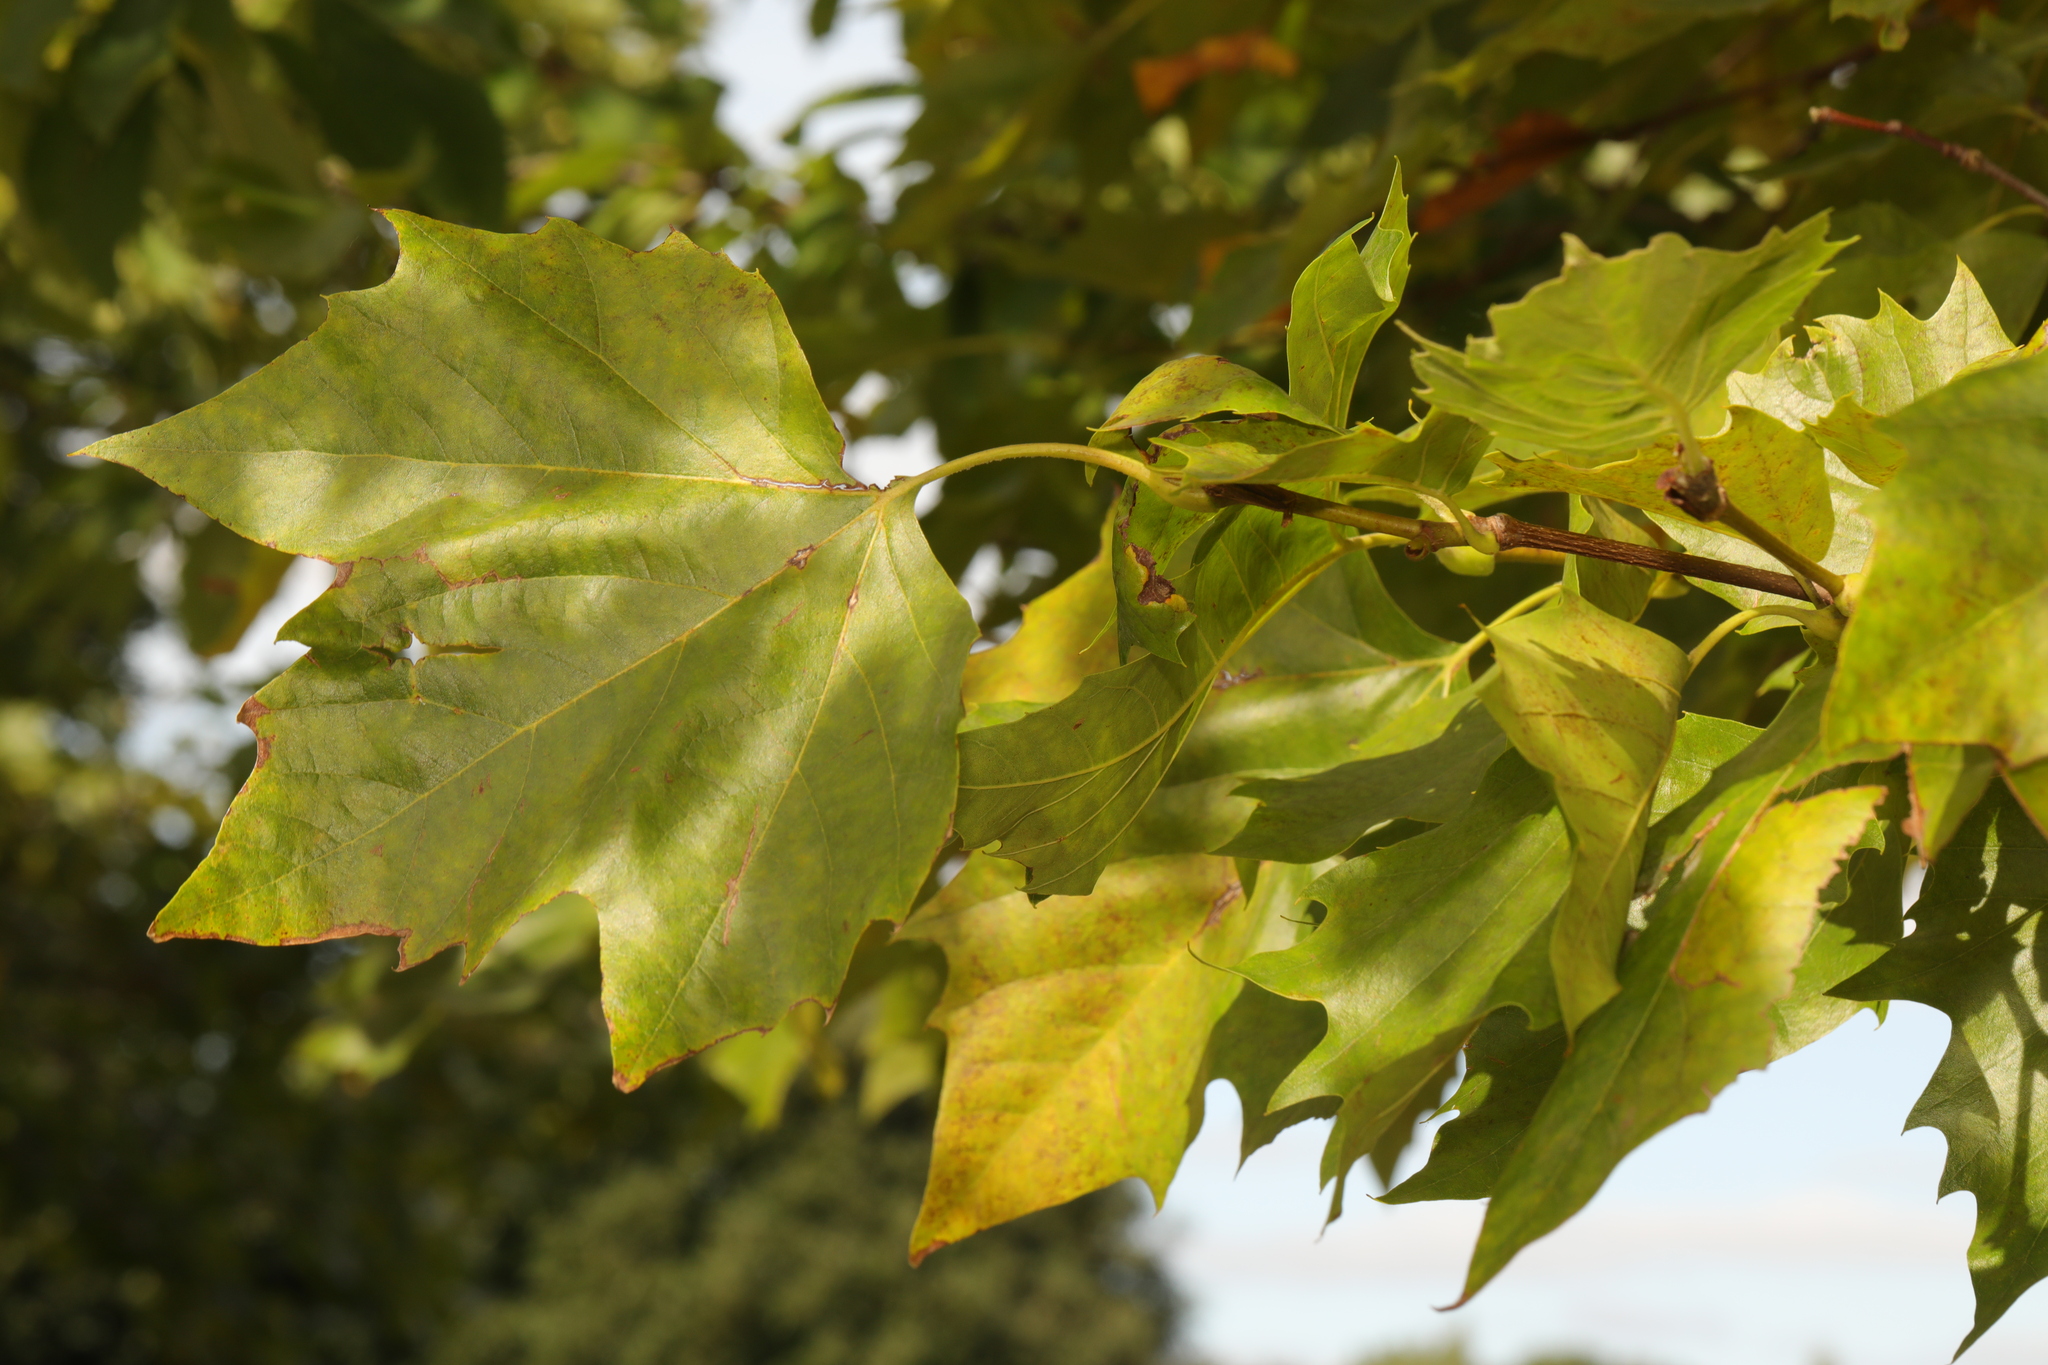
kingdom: Plantae
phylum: Tracheophyta
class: Magnoliopsida
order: Proteales
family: Platanaceae
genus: Platanus
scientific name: Platanus hispanica
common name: London plane
